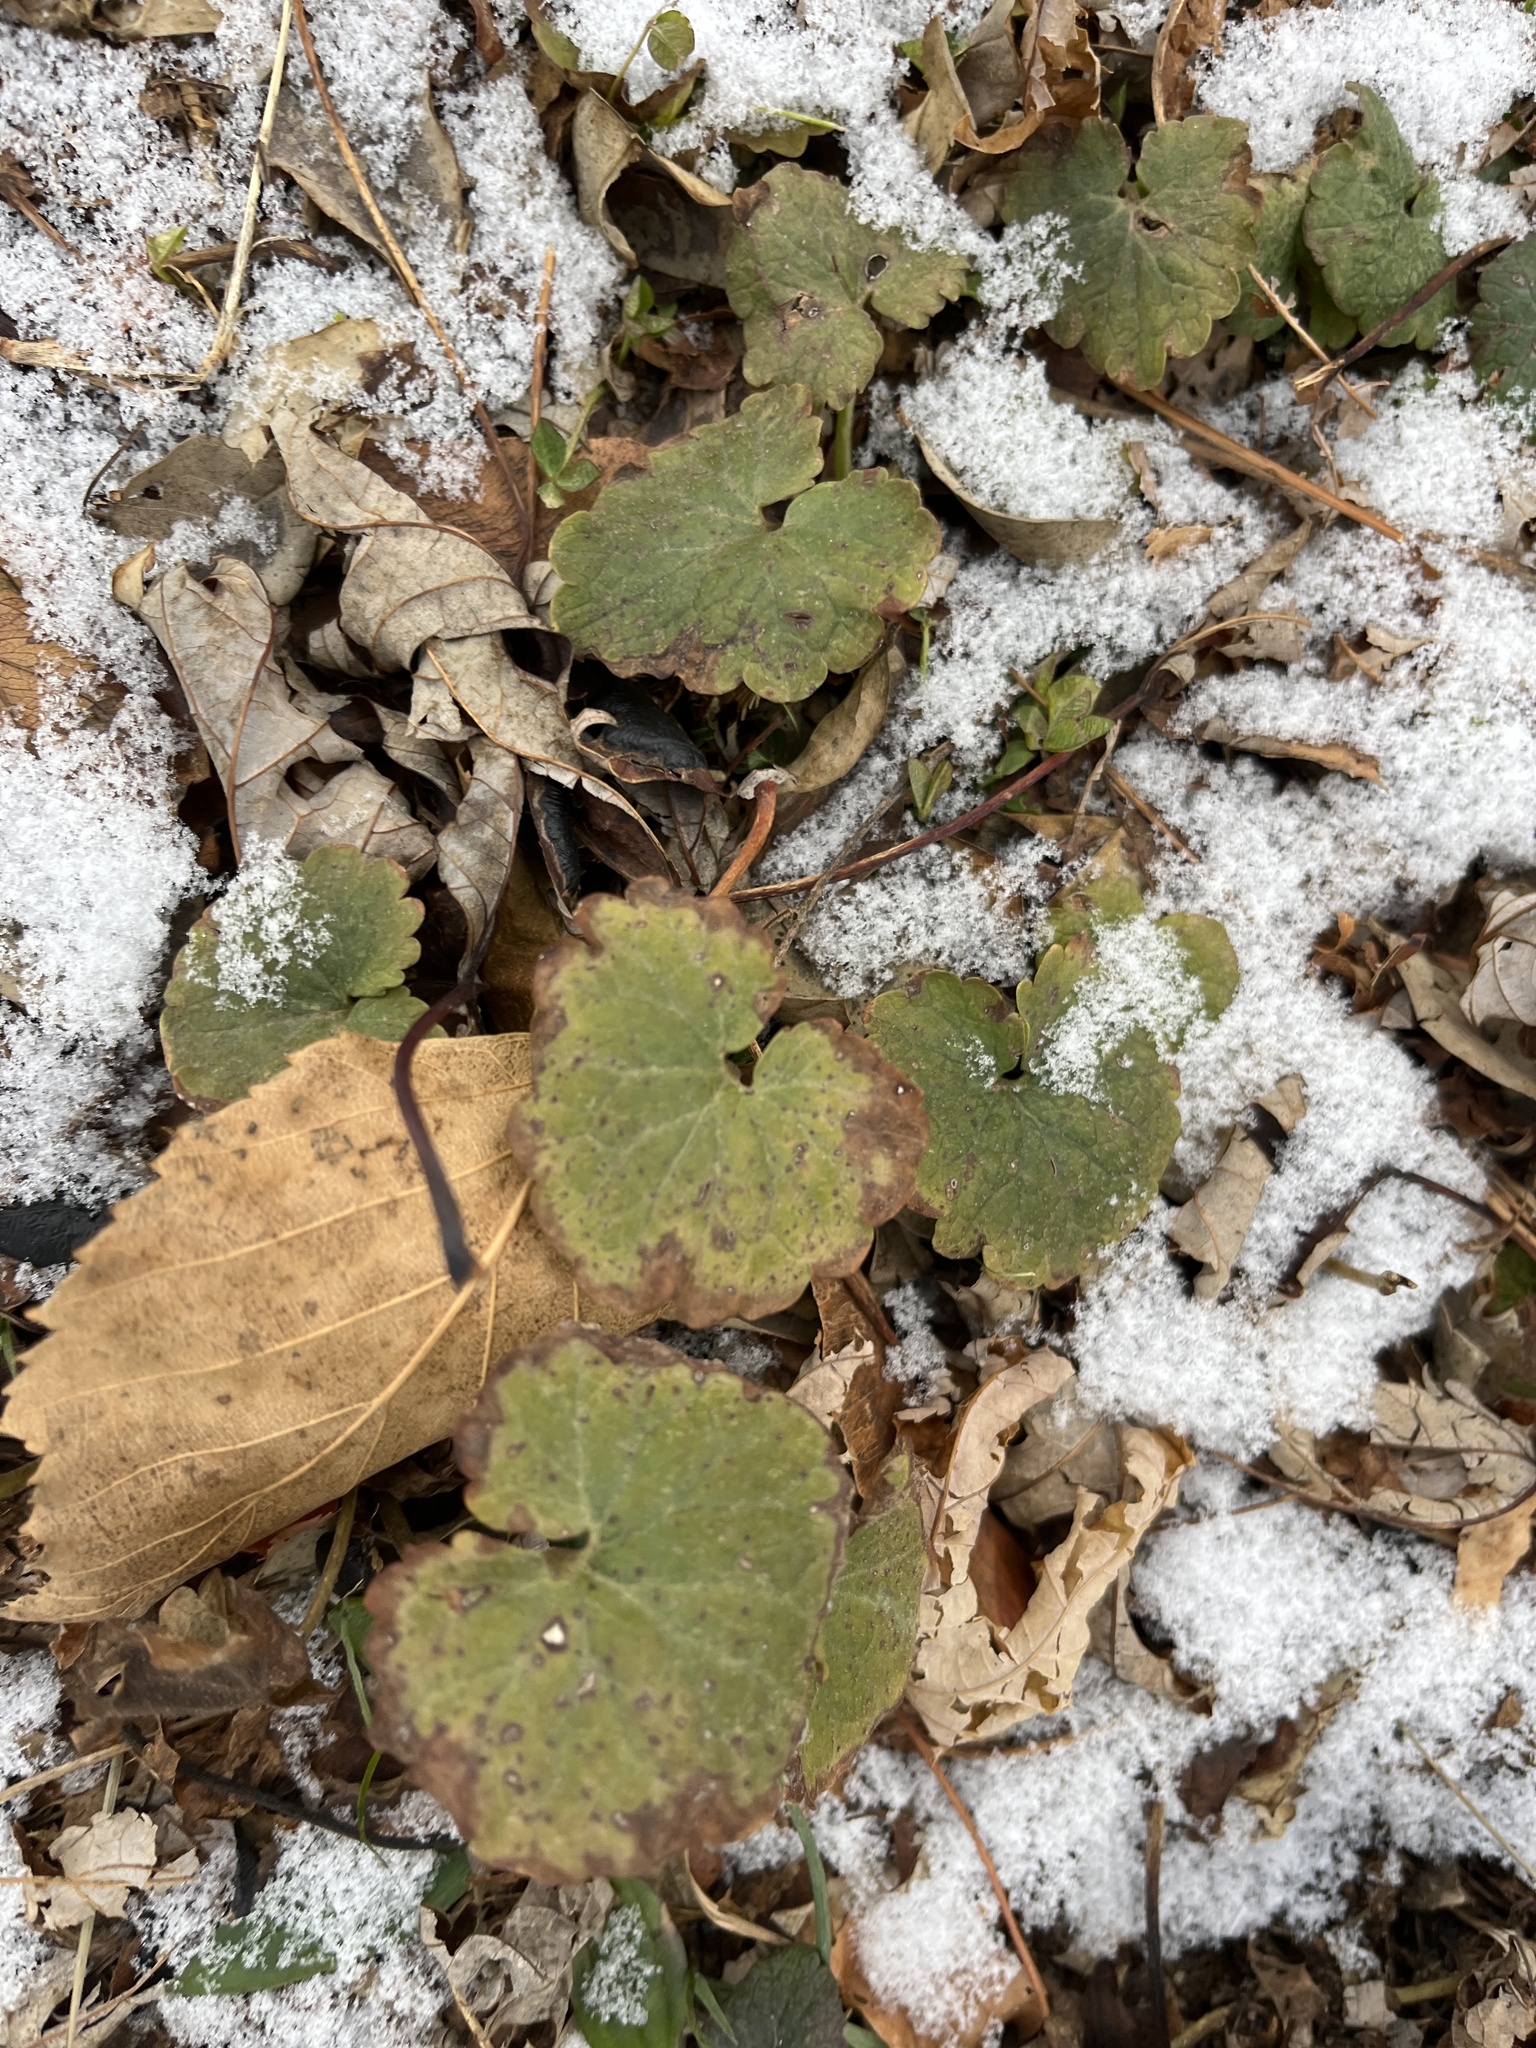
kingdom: Plantae
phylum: Tracheophyta
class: Magnoliopsida
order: Lamiales
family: Lamiaceae
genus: Glechoma
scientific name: Glechoma hederacea
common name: Ground ivy
